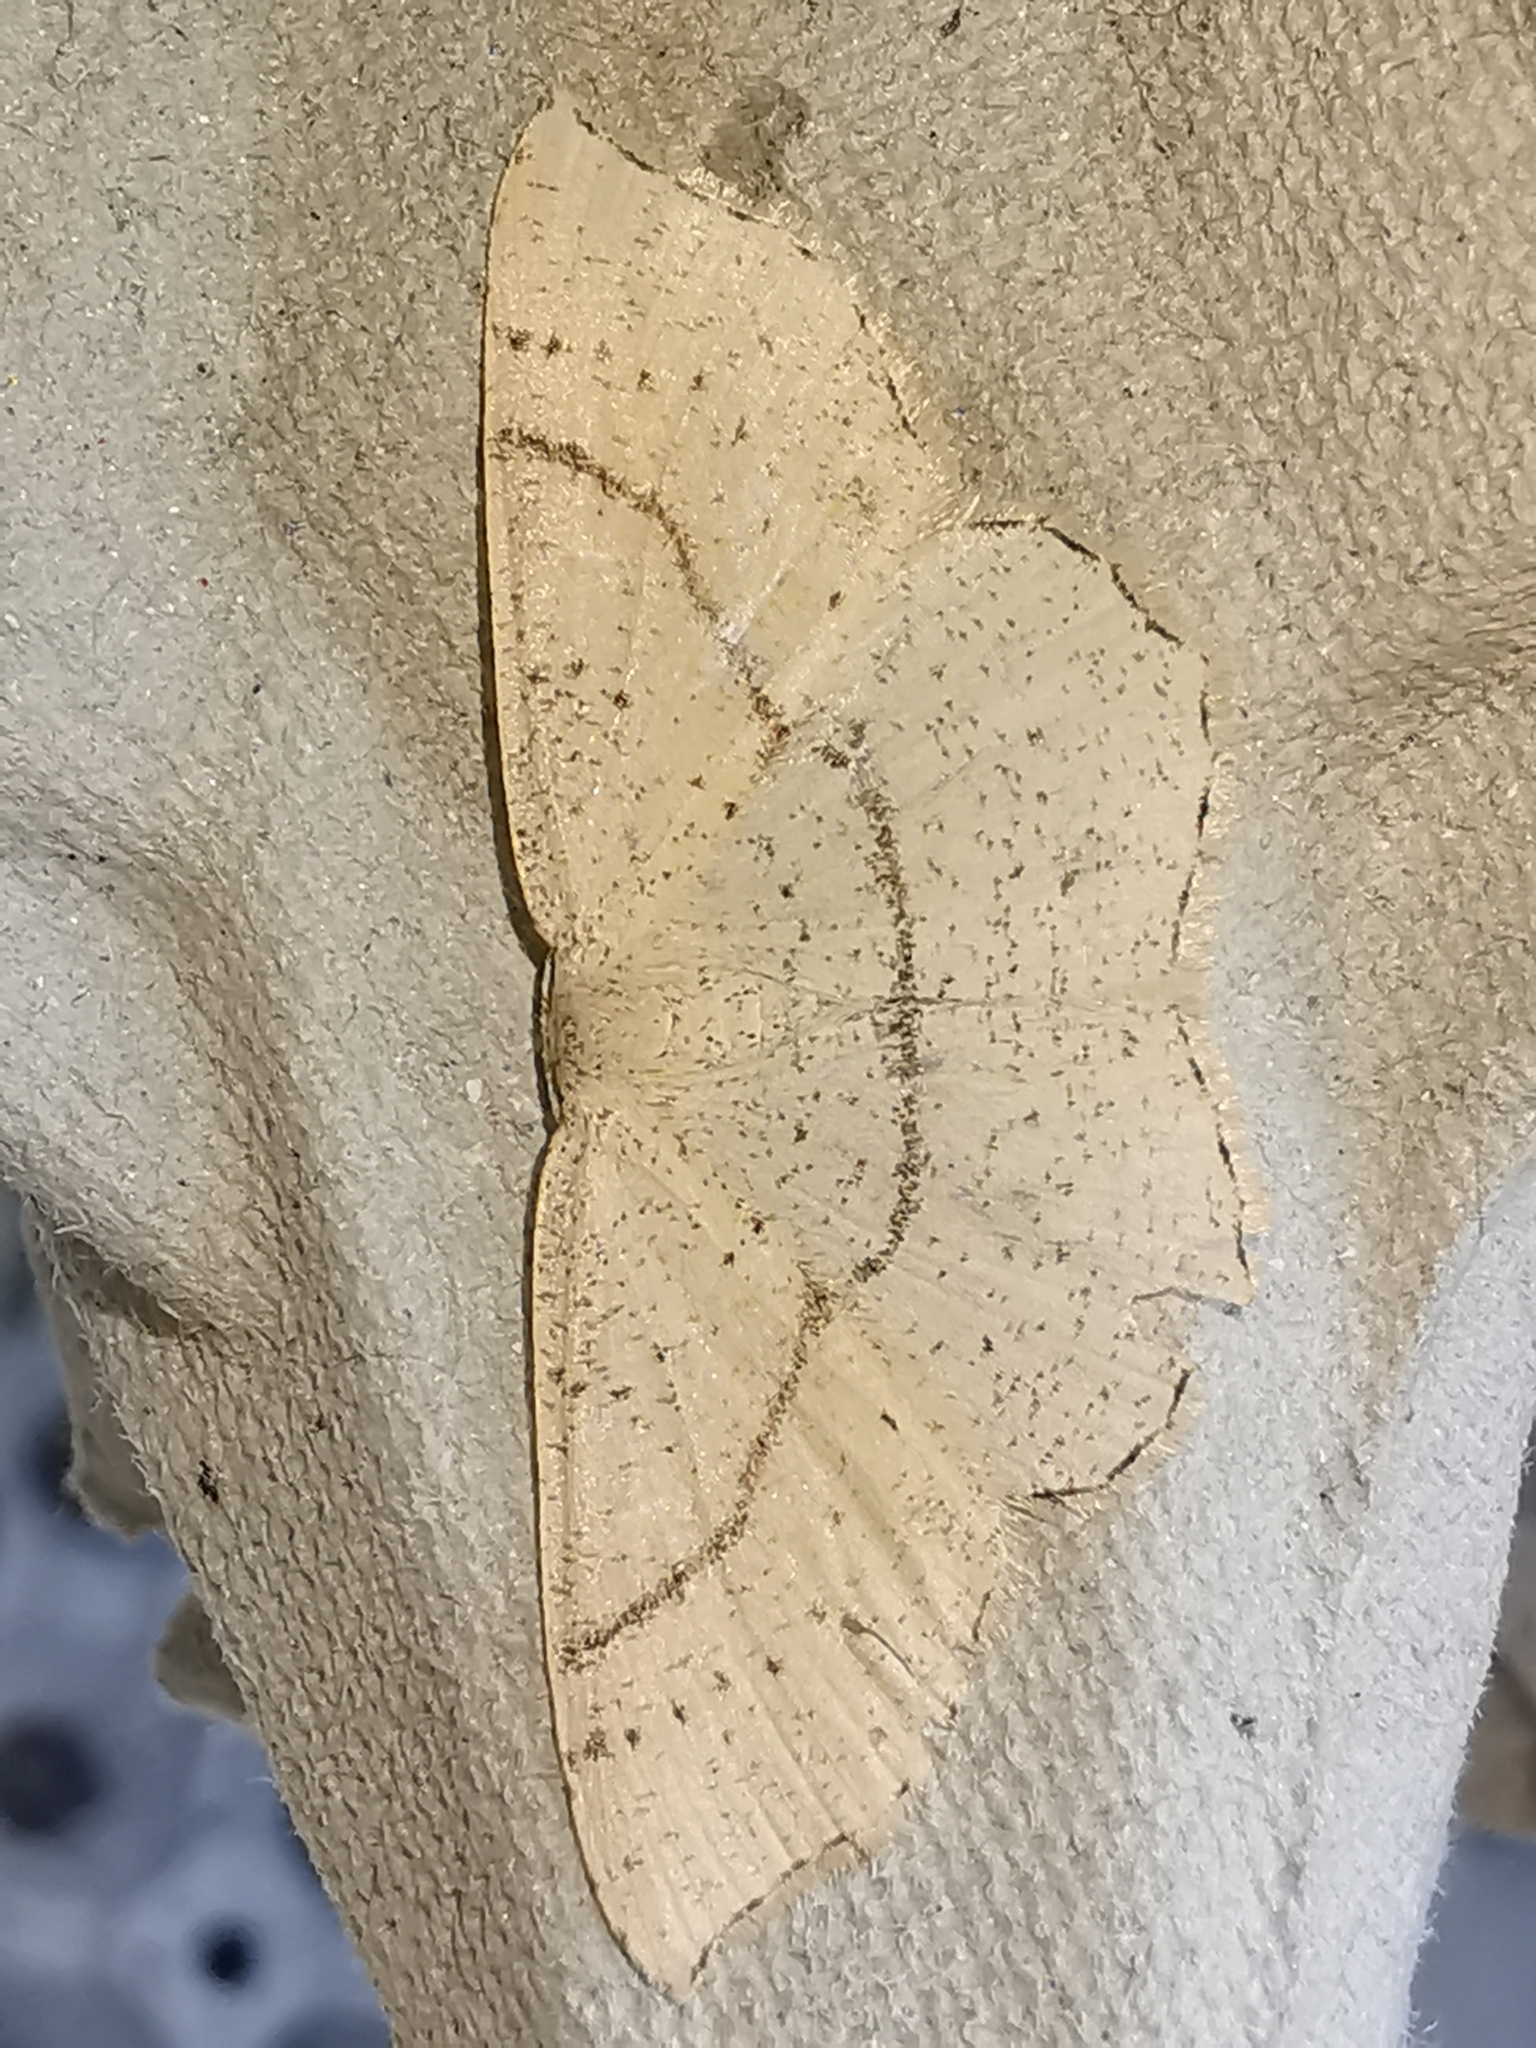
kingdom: Animalia
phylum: Arthropoda
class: Insecta
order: Lepidoptera
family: Geometridae
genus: Cyclophora
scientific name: Cyclophora punctaria
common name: Maiden's blush
